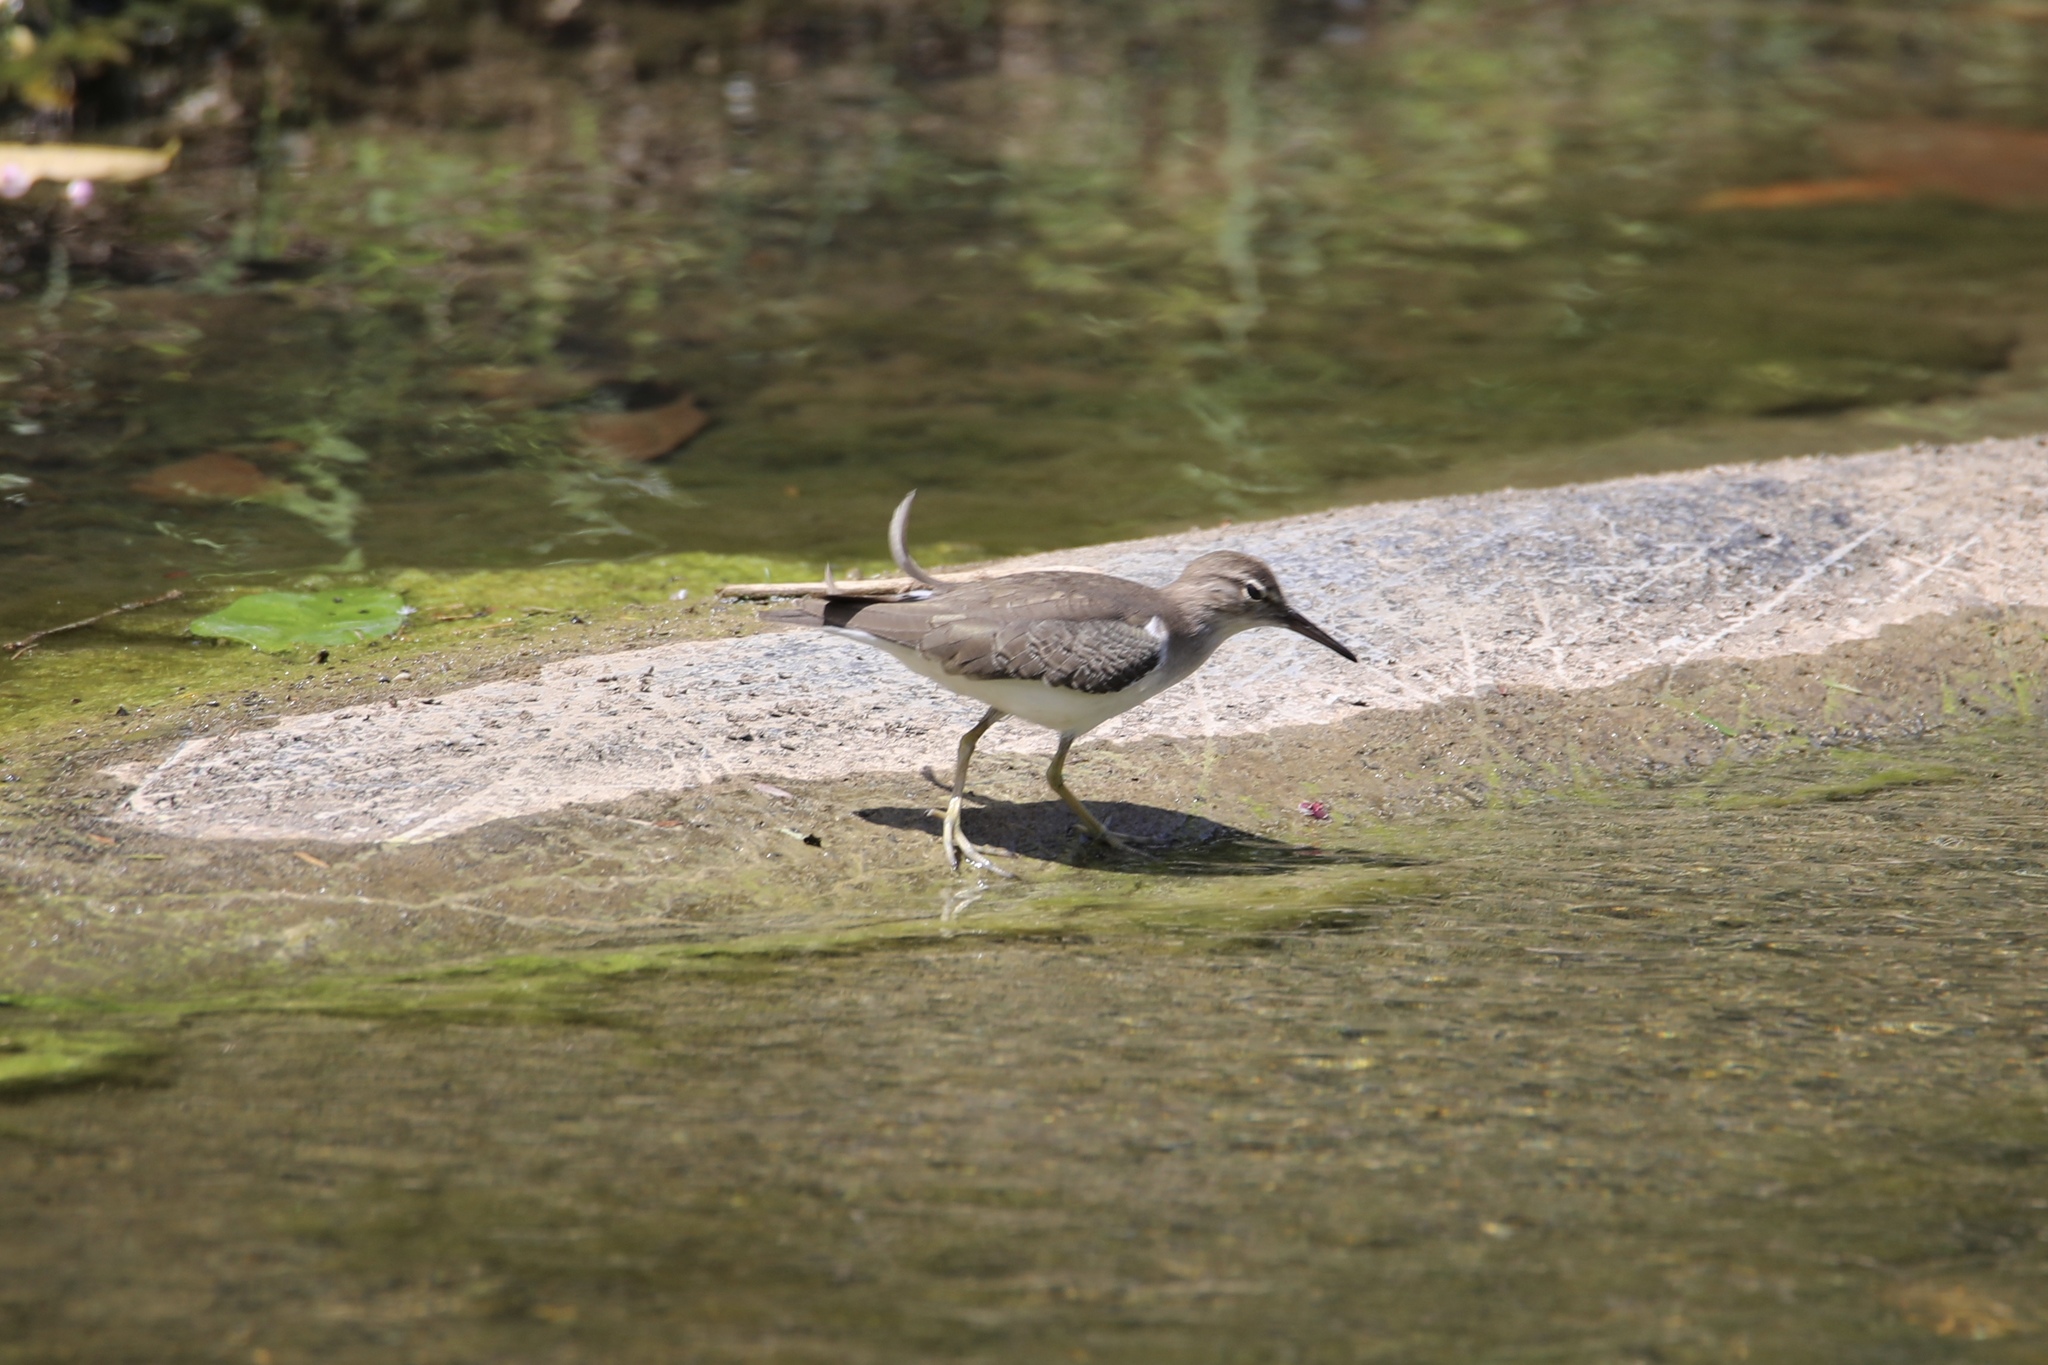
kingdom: Animalia
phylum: Chordata
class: Aves
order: Charadriiformes
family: Scolopacidae
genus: Actitis
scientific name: Actitis macularius
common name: Spotted sandpiper
